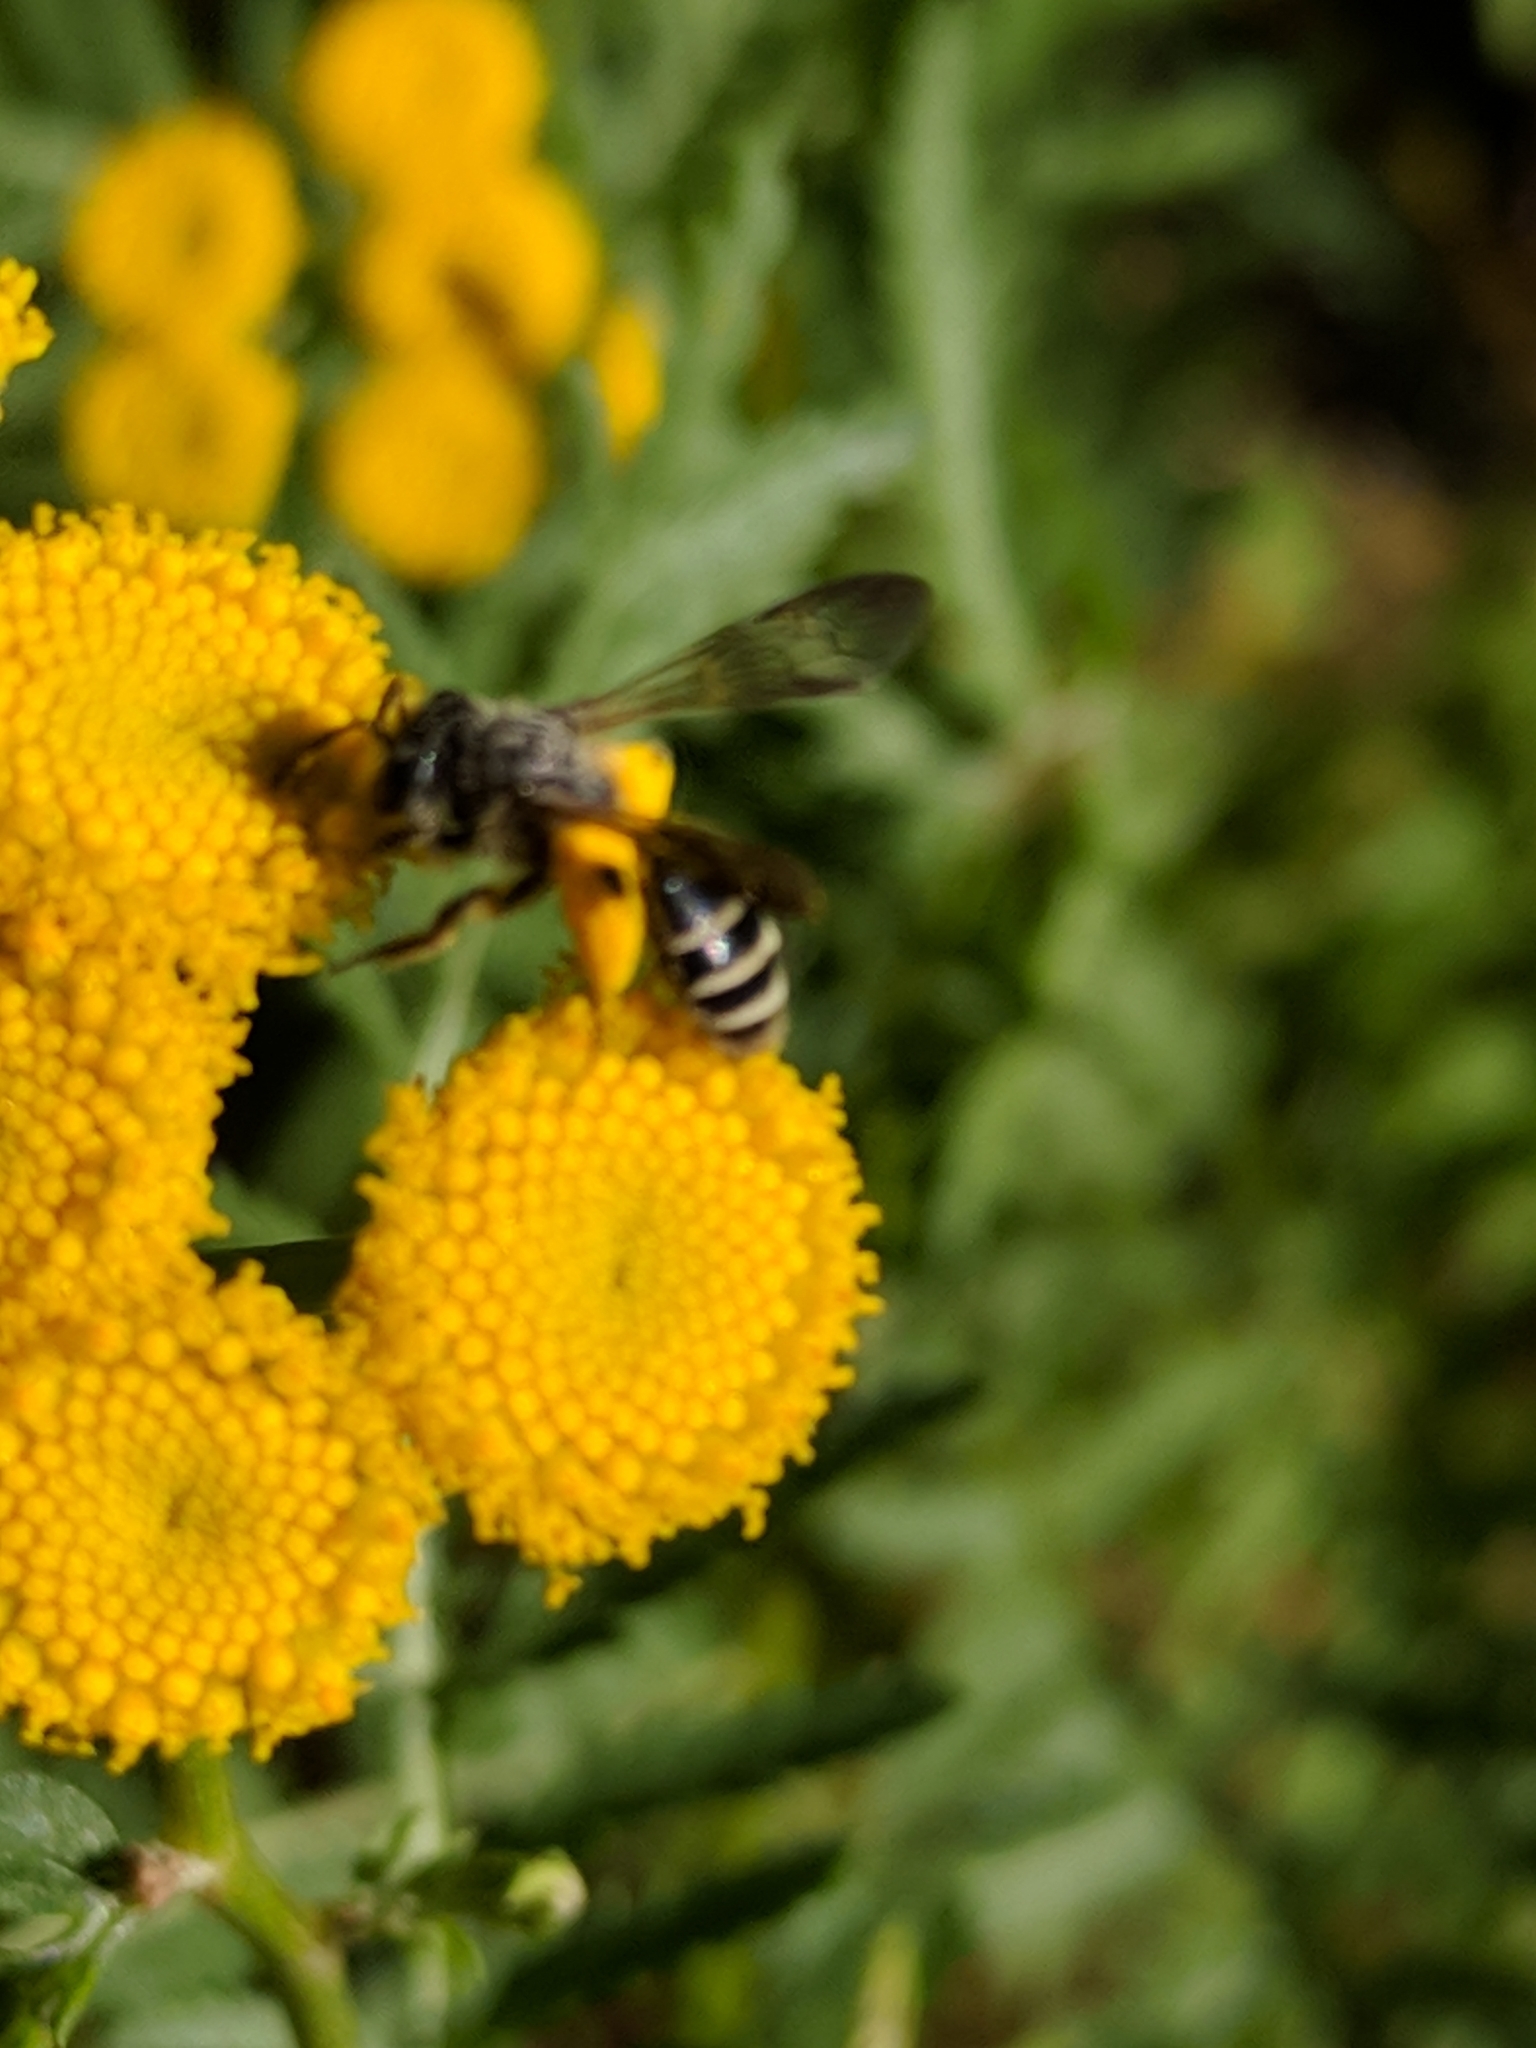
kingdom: Animalia
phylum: Arthropoda
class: Insecta
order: Hymenoptera
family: Andrenidae
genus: Andrena
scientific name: Andrena nubecula
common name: Cloudy-winged mining bee
